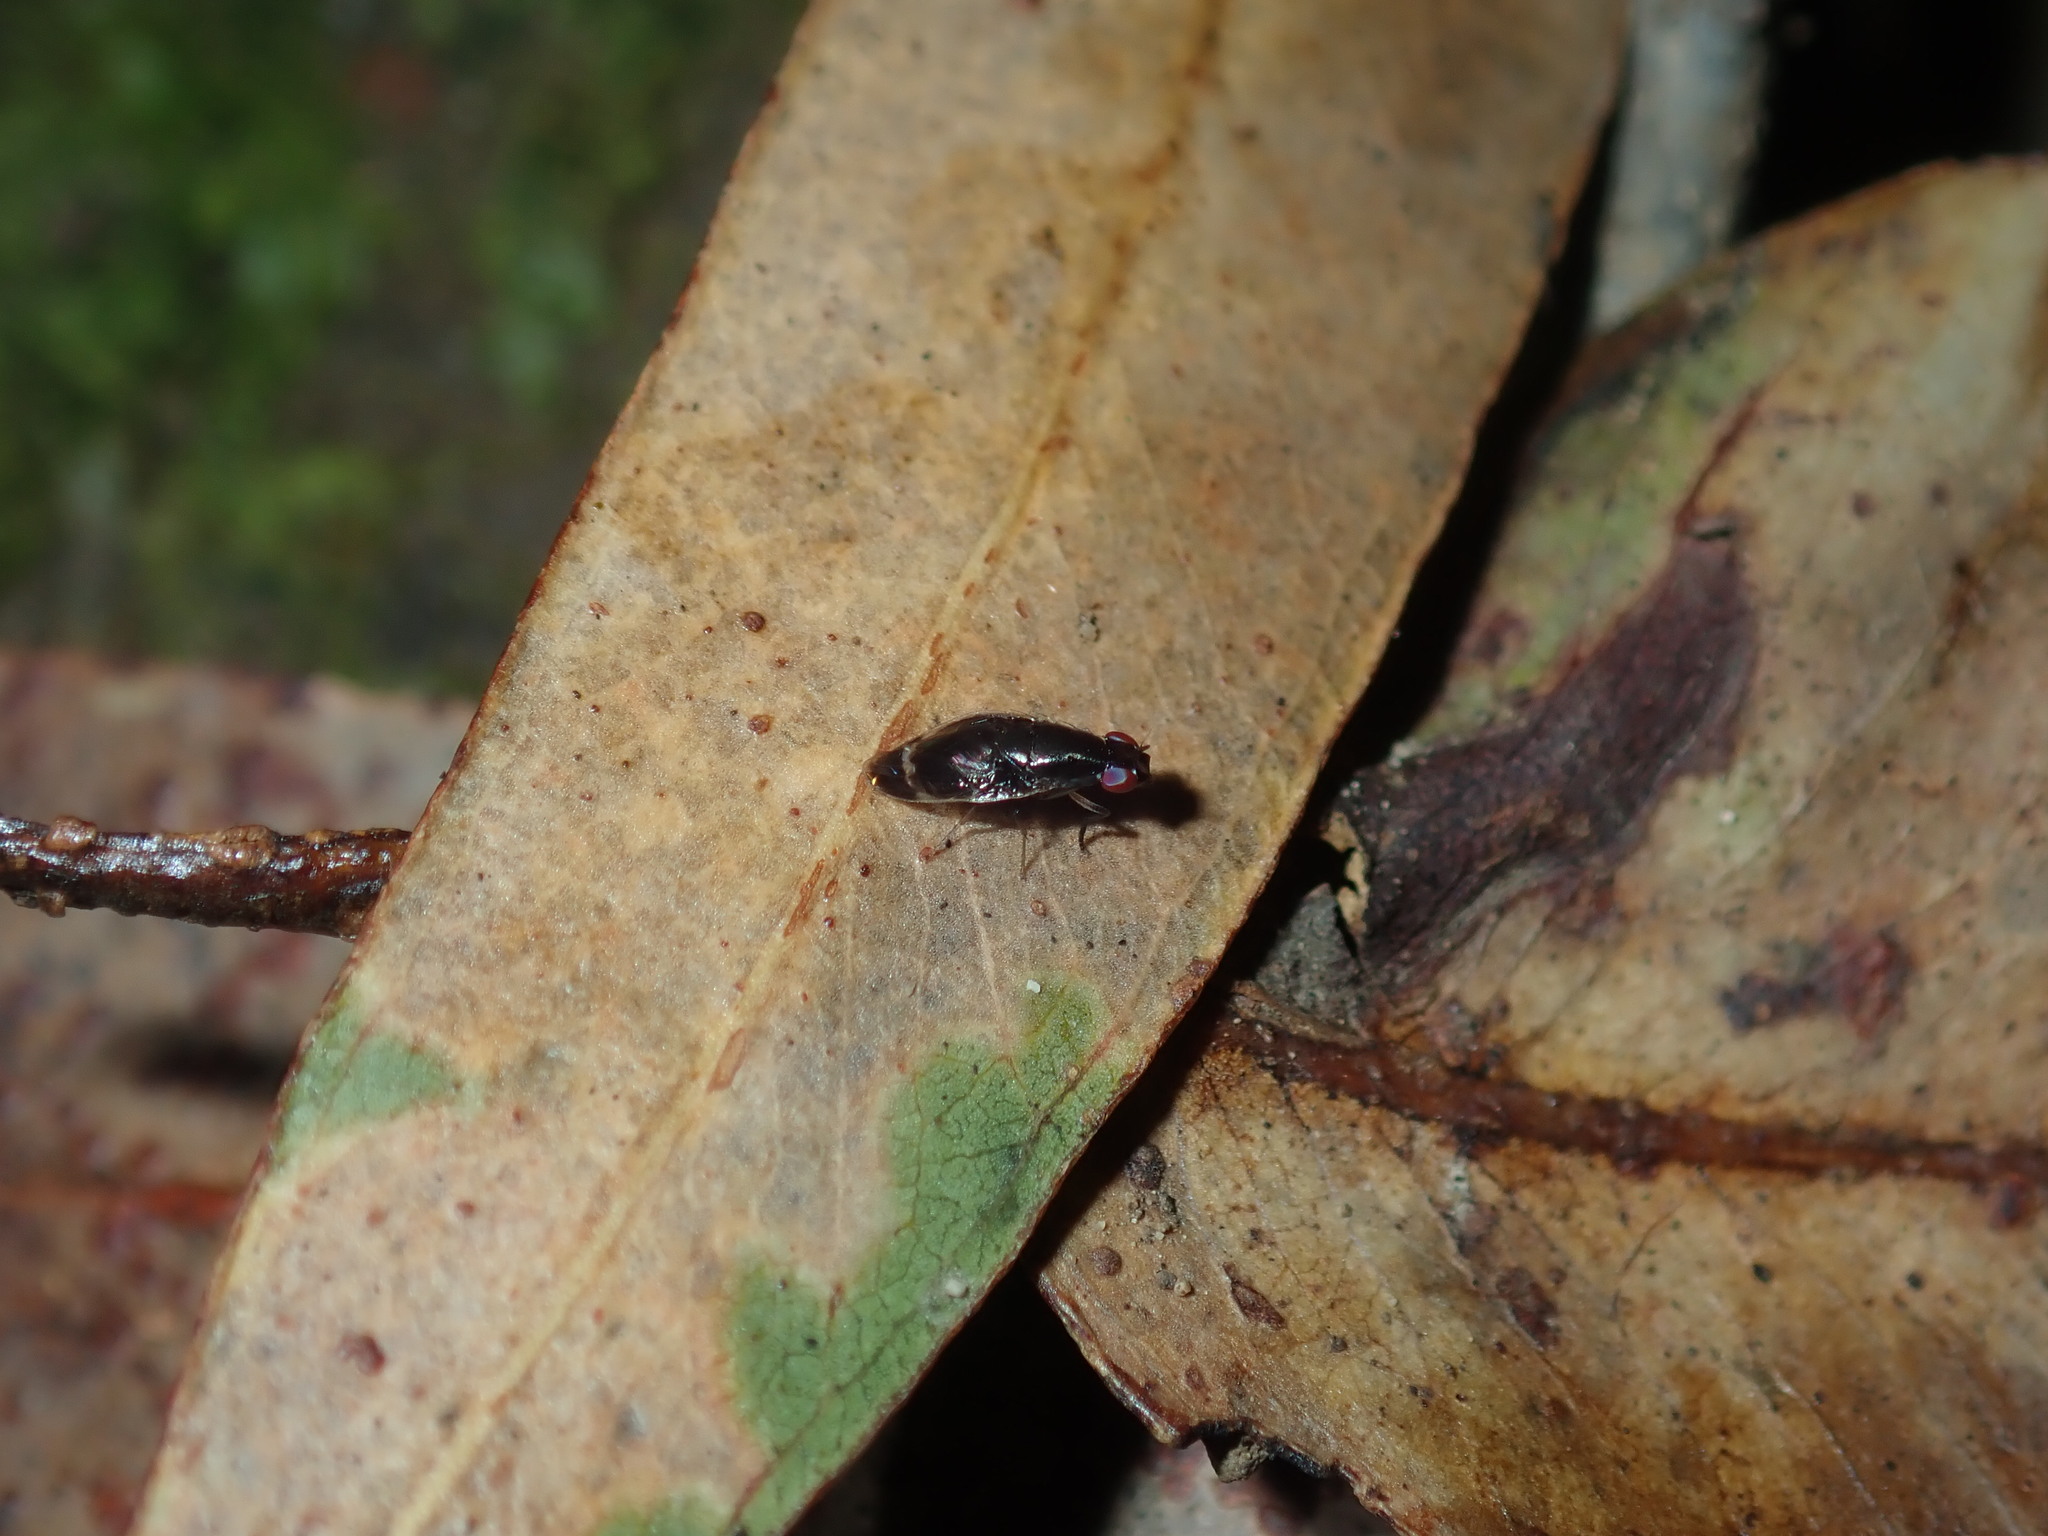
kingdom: Animalia
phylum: Arthropoda
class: Insecta
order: Diptera
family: Lauxaniidae
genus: Depressa
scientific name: Depressa albicosta
